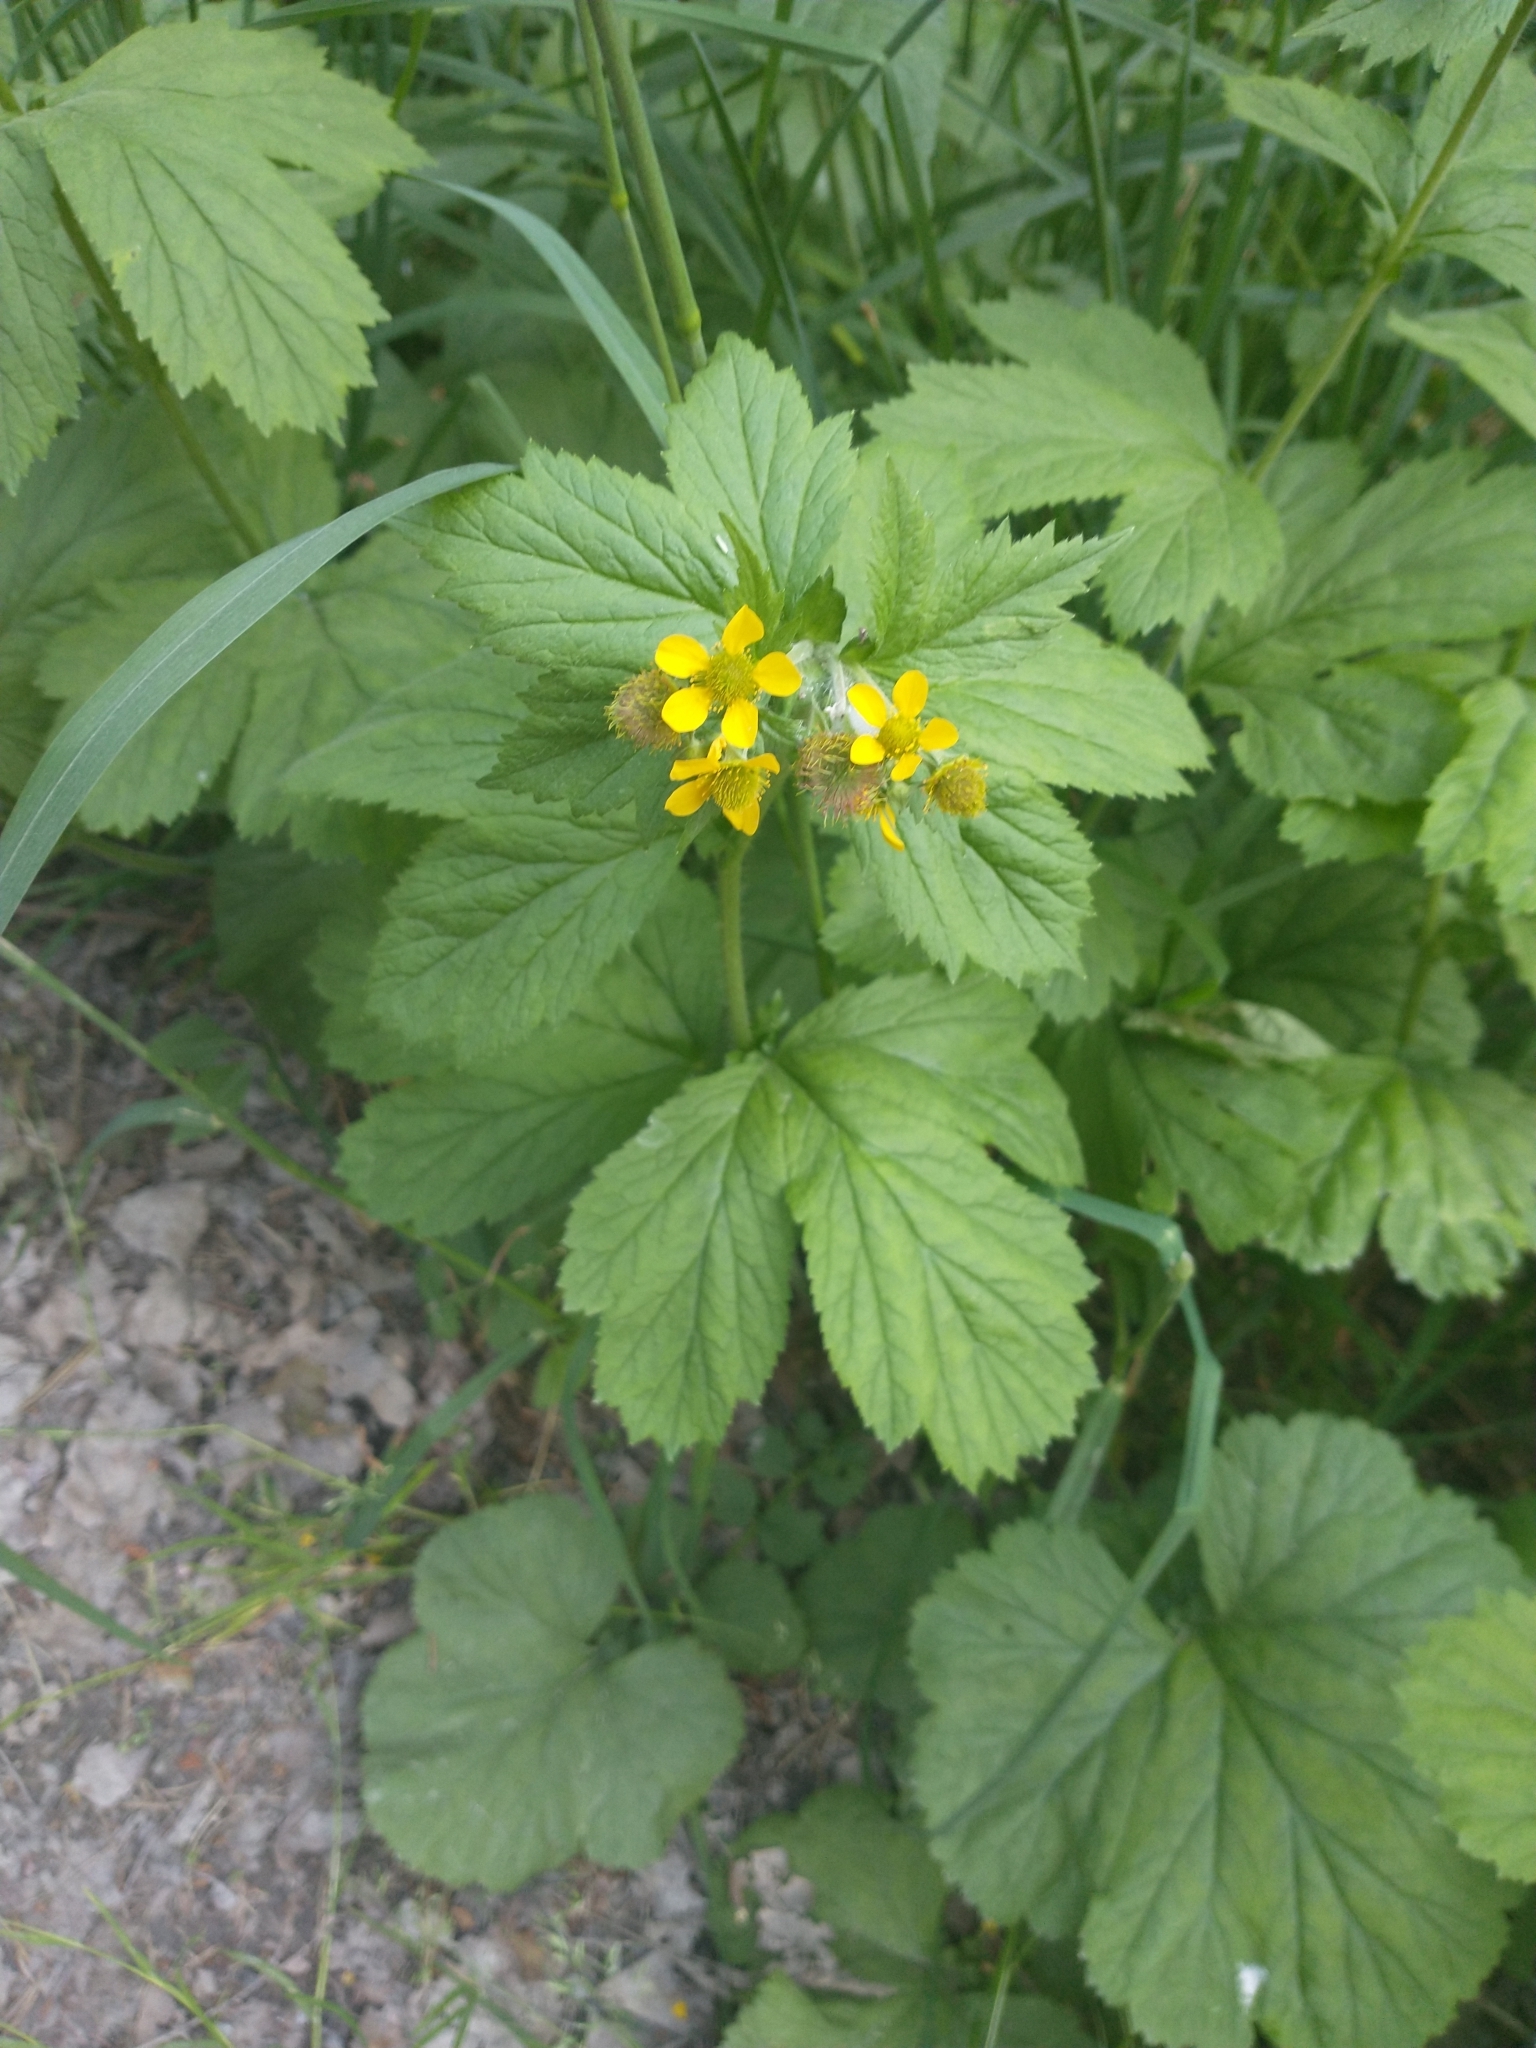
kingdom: Plantae
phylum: Tracheophyta
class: Magnoliopsida
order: Rosales
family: Rosaceae
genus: Geum
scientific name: Geum urbanum
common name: Wood avens
